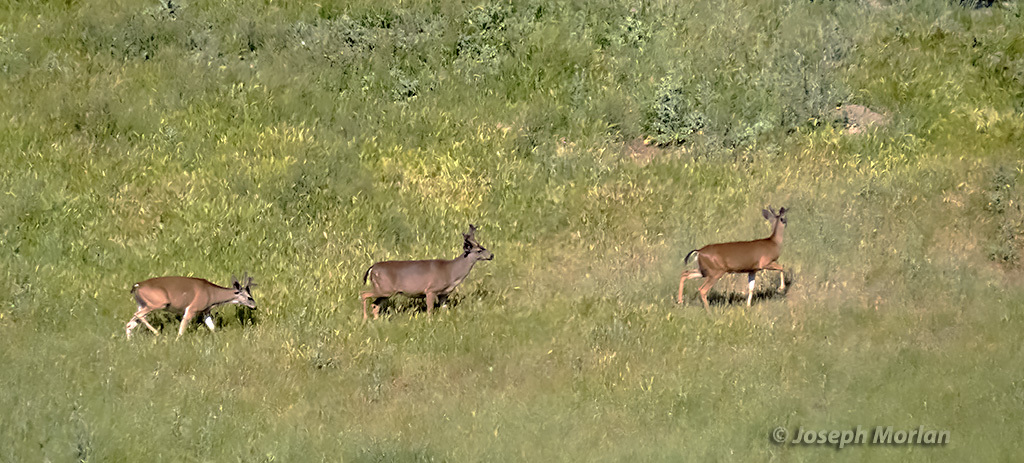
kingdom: Animalia
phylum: Chordata
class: Mammalia
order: Artiodactyla
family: Cervidae
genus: Odocoileus
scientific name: Odocoileus hemionus
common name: Mule deer
